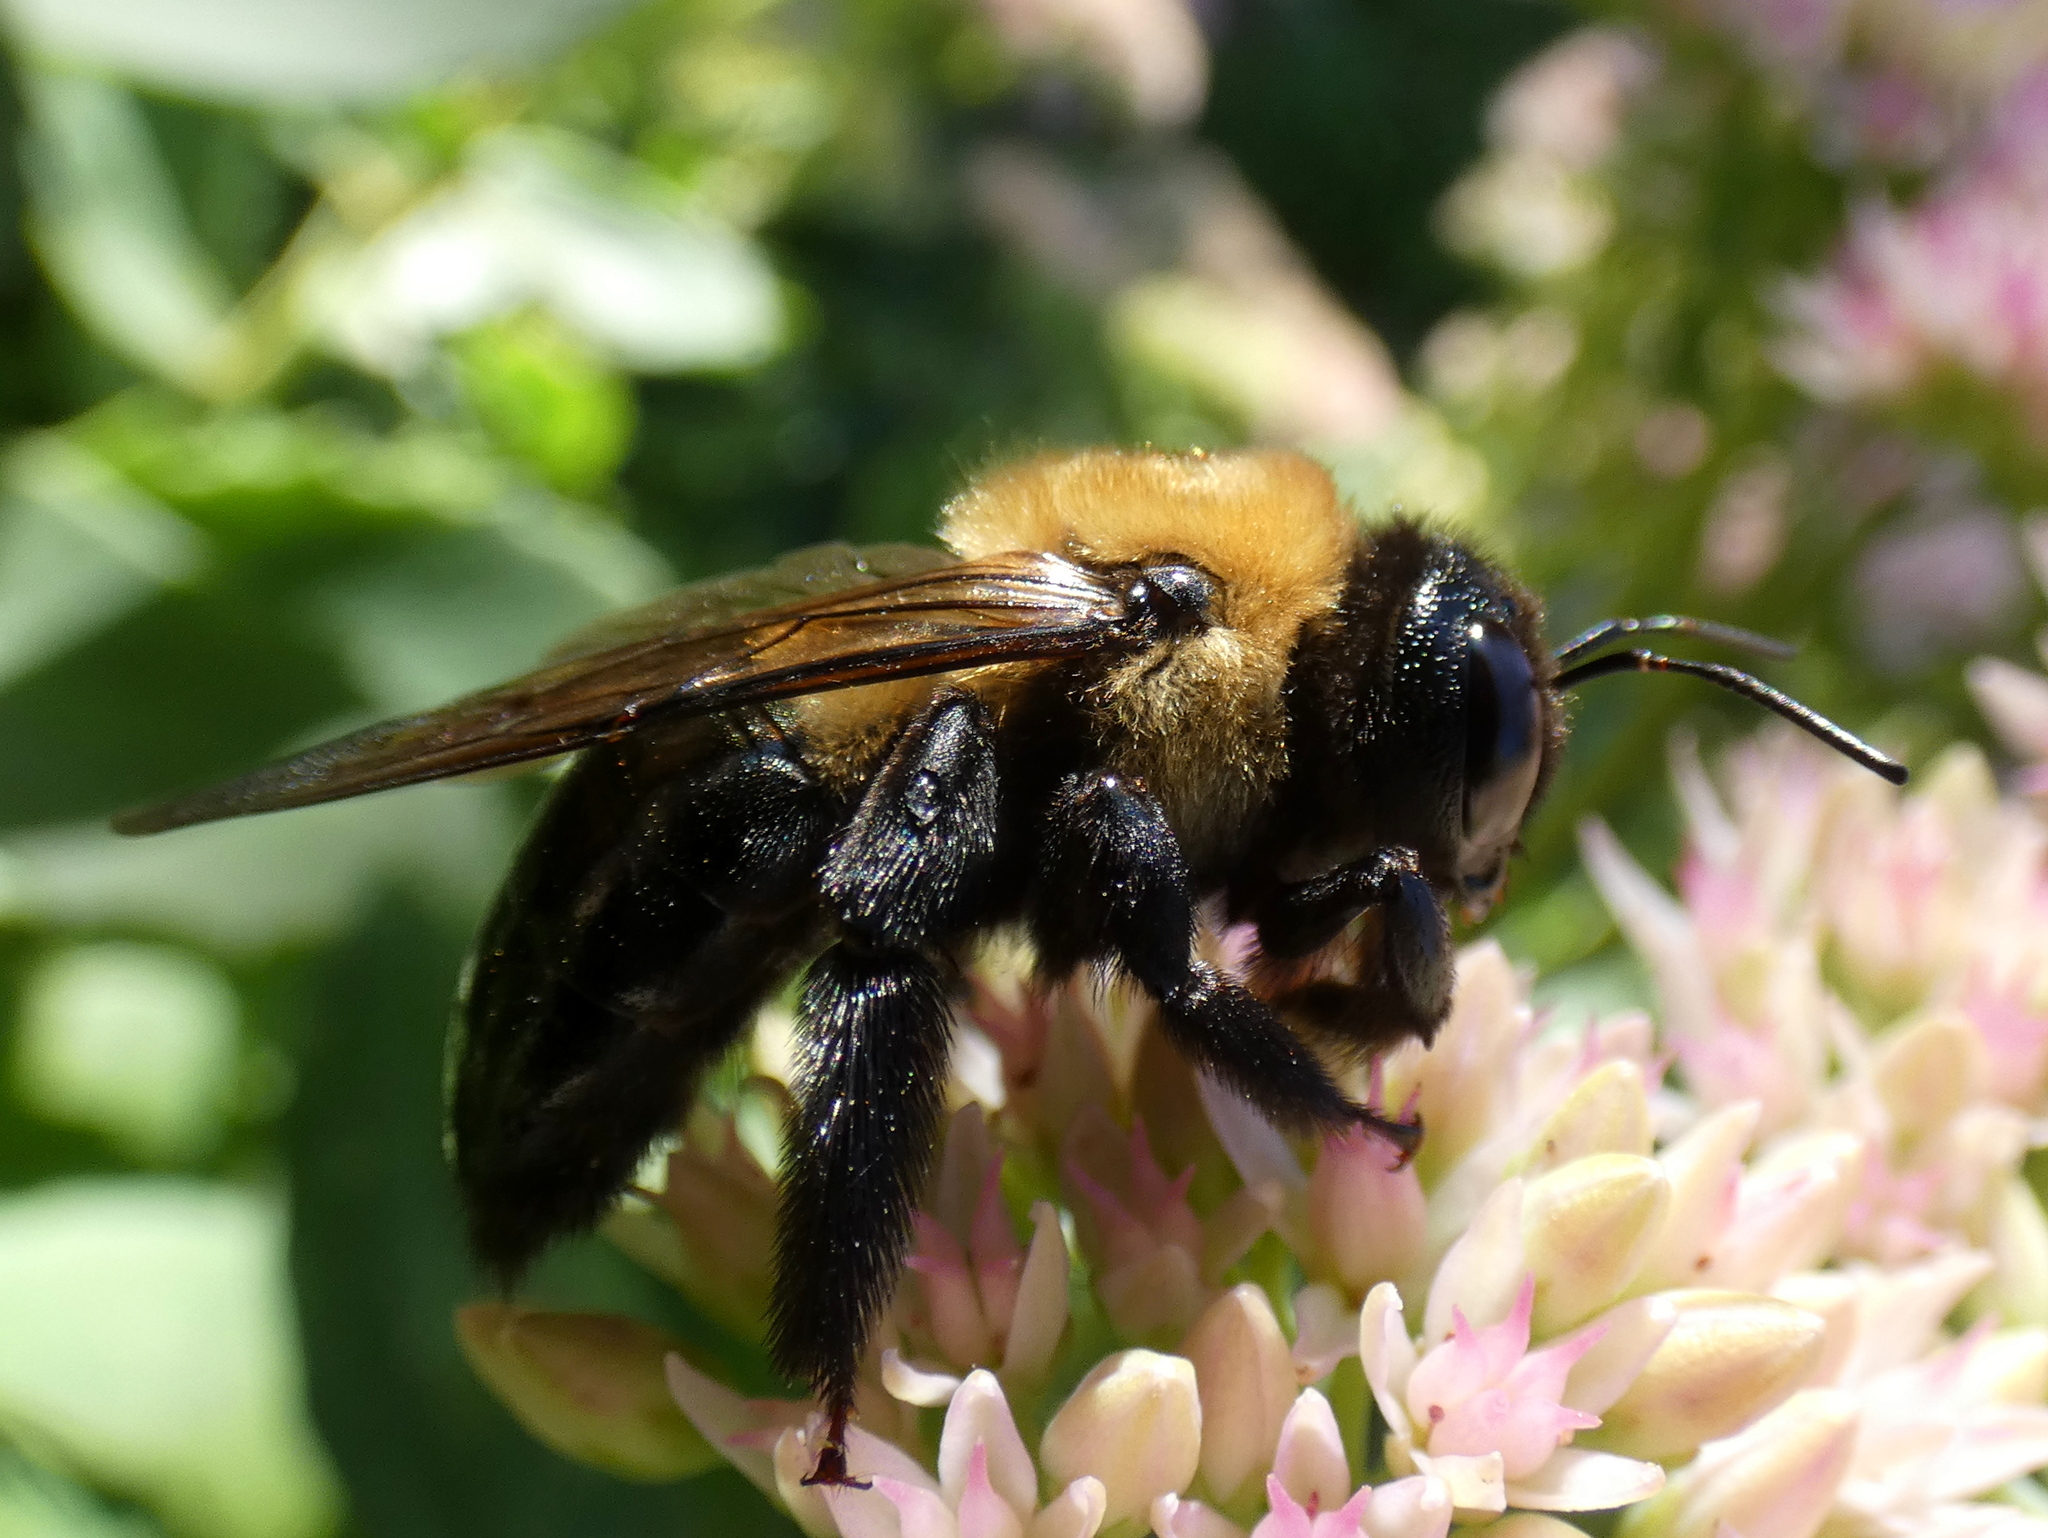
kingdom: Animalia
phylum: Arthropoda
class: Insecta
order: Hymenoptera
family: Apidae
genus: Xylocopa
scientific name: Xylocopa virginica
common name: Carpenter bee
